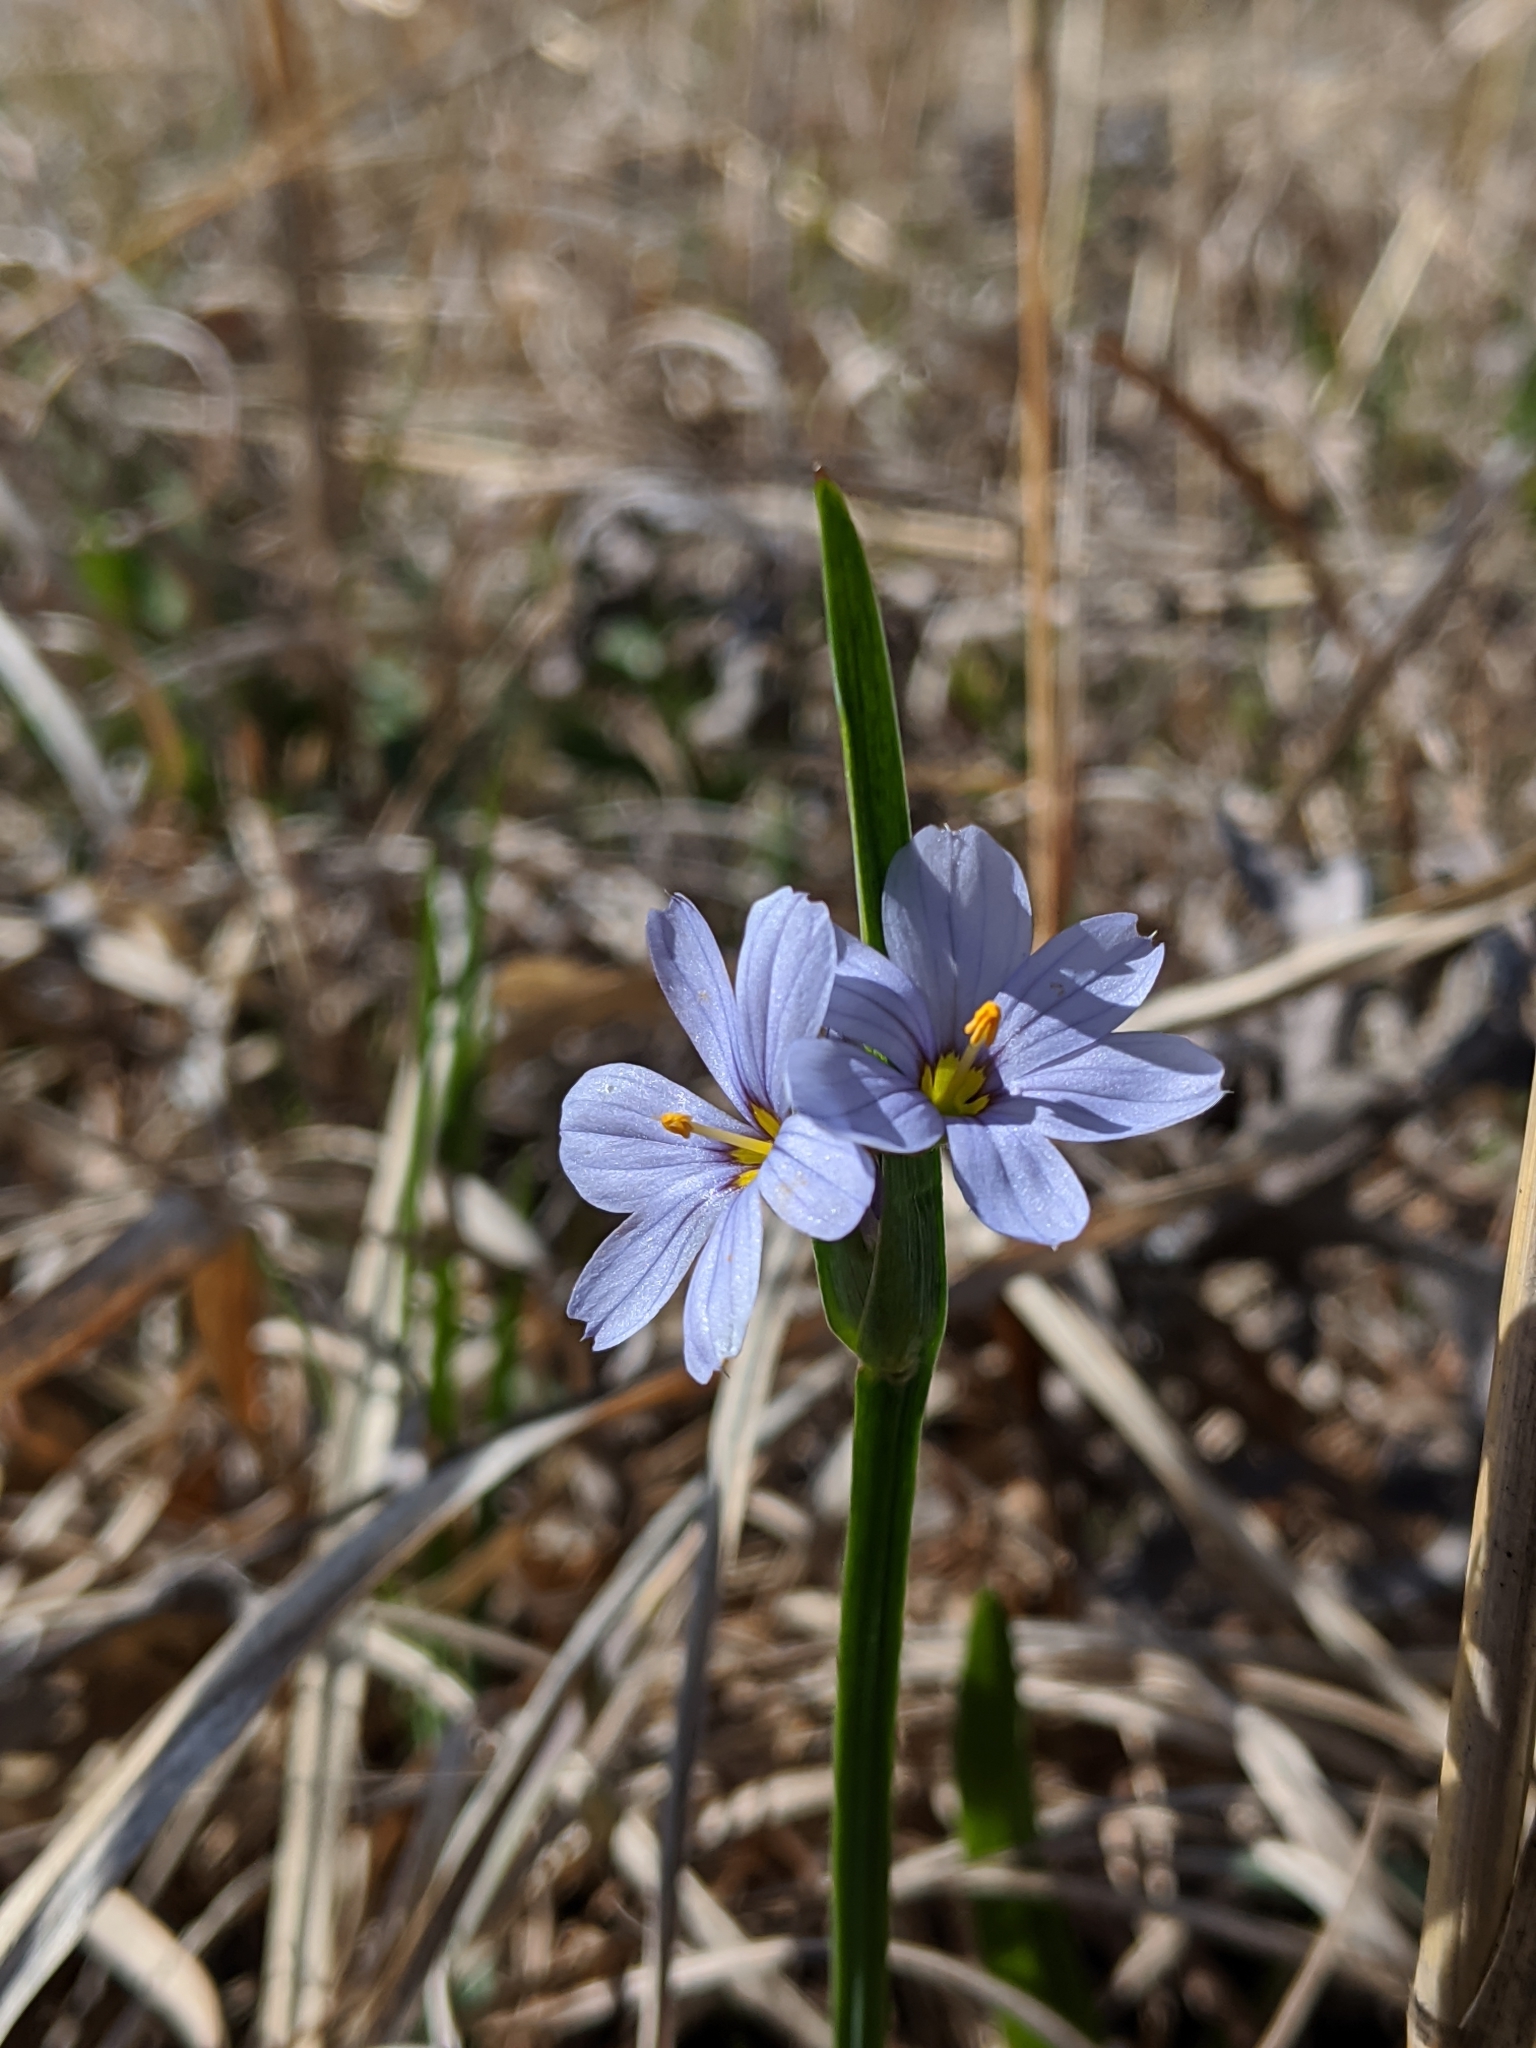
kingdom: Plantae
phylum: Tracheophyta
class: Liliopsida
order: Asparagales
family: Iridaceae
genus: Sisyrinchium
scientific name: Sisyrinchium campestre
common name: Prairie blue-eyed-grass
